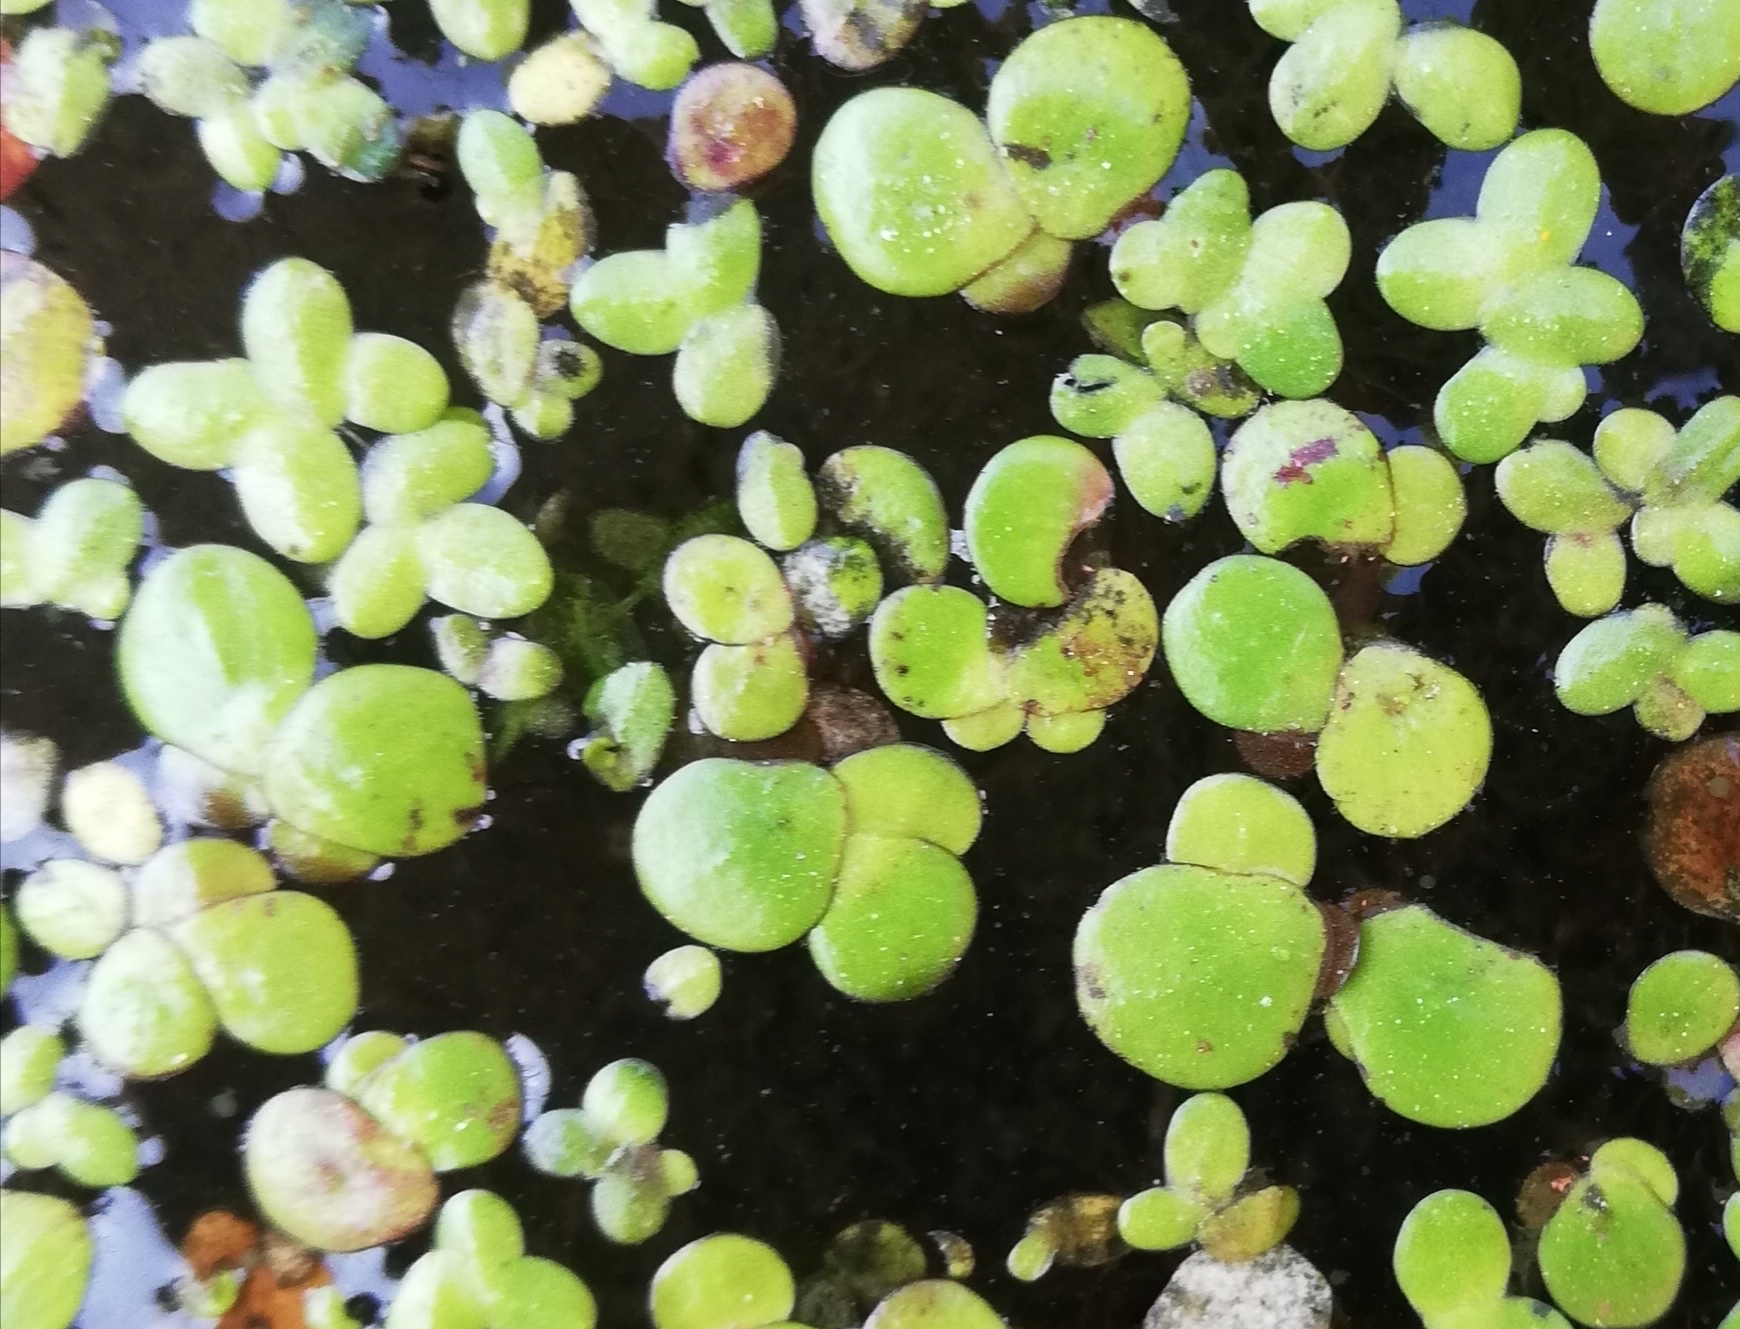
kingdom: Plantae
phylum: Tracheophyta
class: Liliopsida
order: Alismatales
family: Araceae
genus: Spirodela
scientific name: Spirodela polyrhiza
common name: Great duckweed
